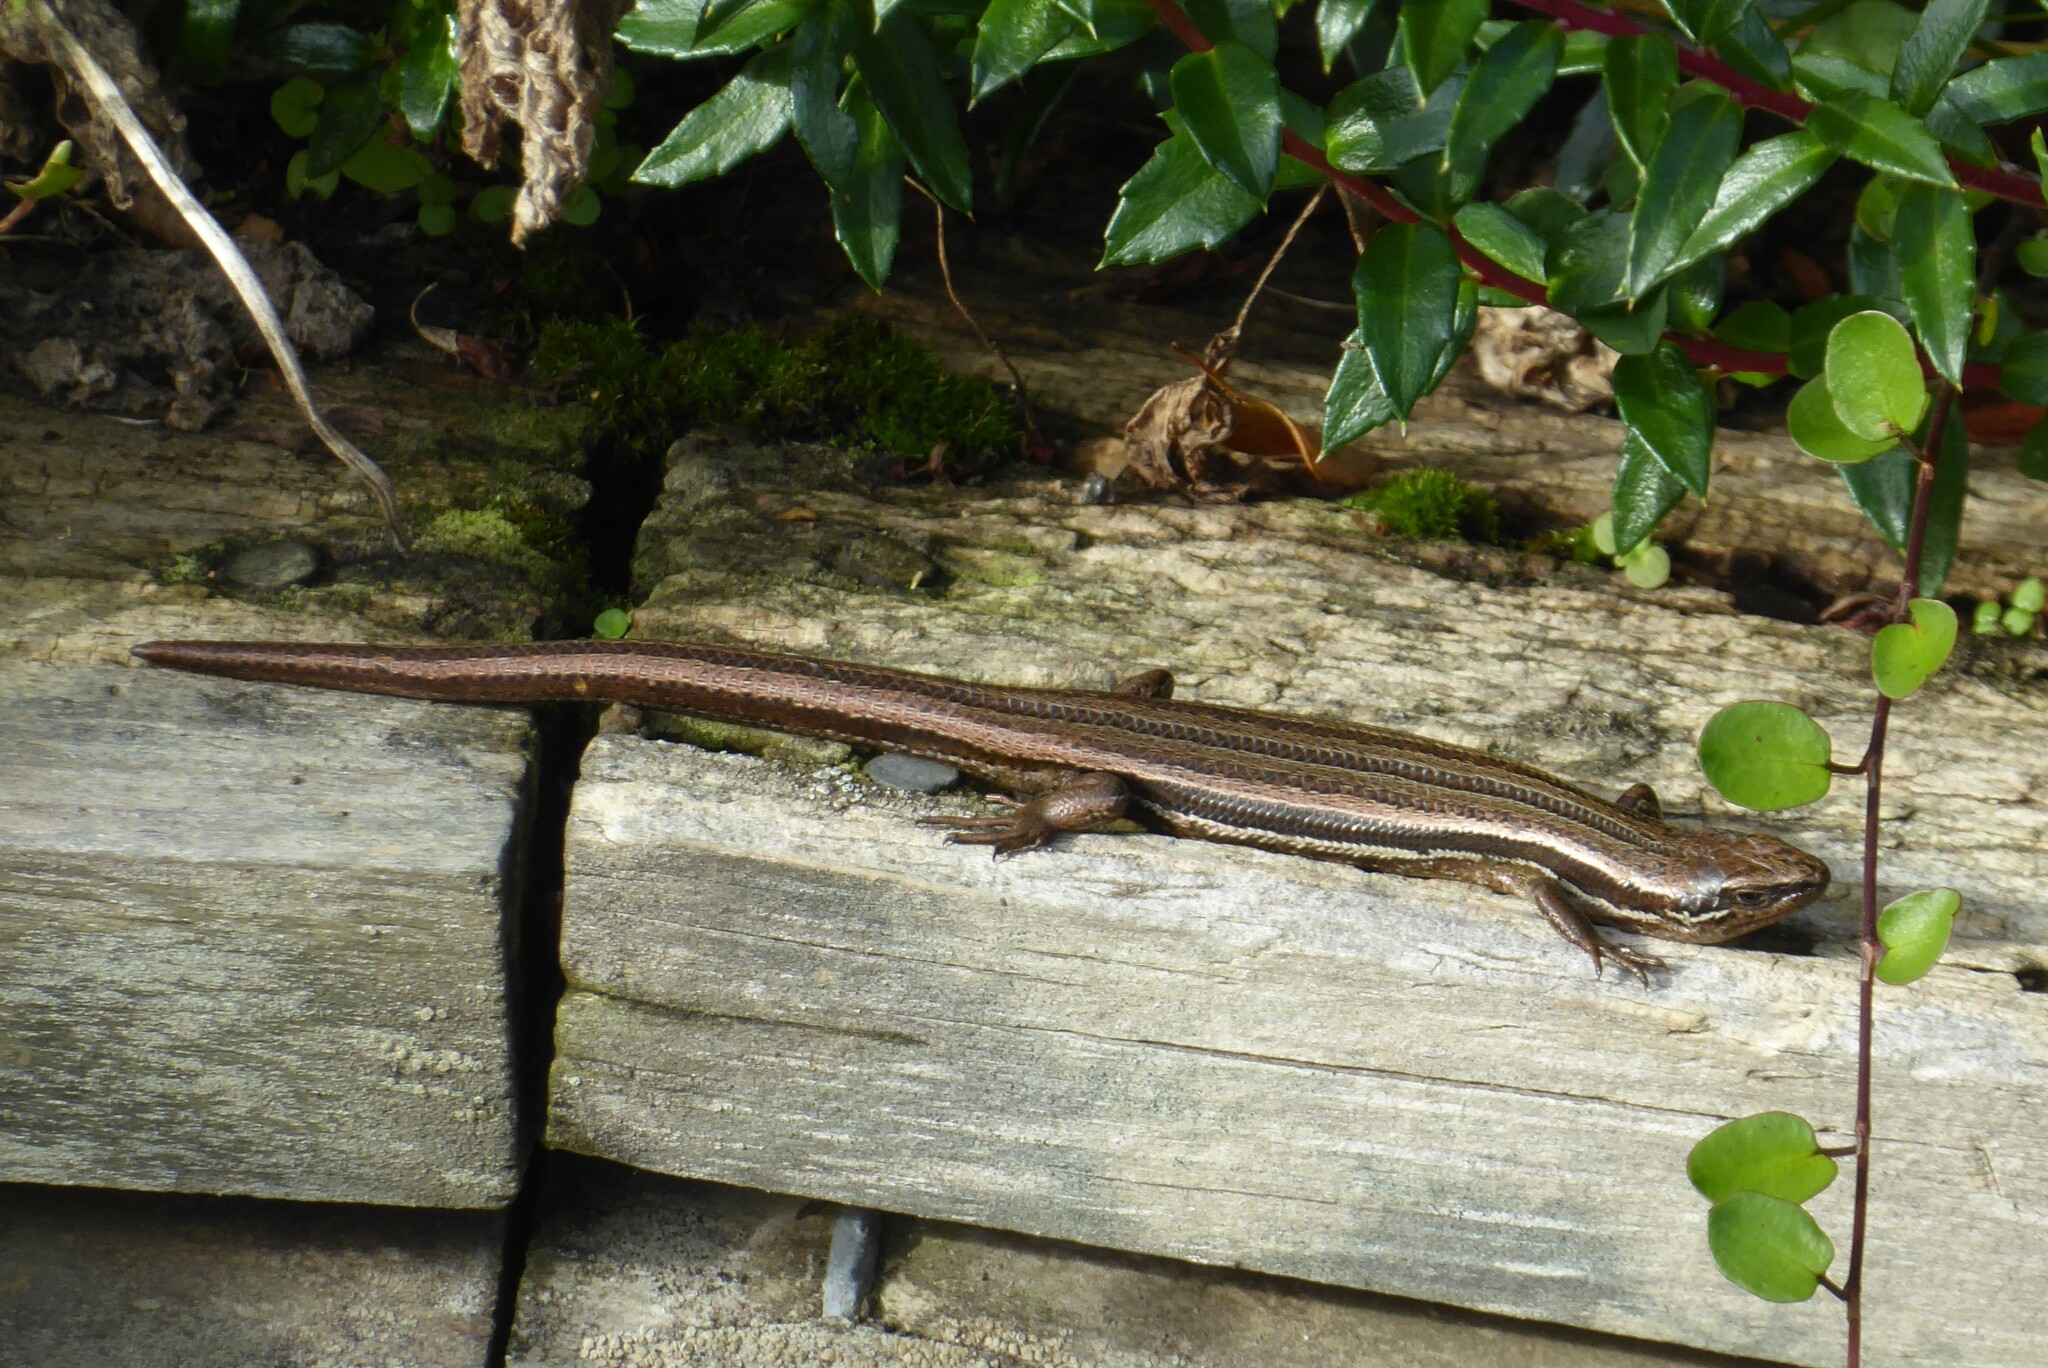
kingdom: Animalia
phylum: Chordata
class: Squamata
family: Scincidae
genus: Oligosoma
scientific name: Oligosoma polychroma
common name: Common new zealand skink
